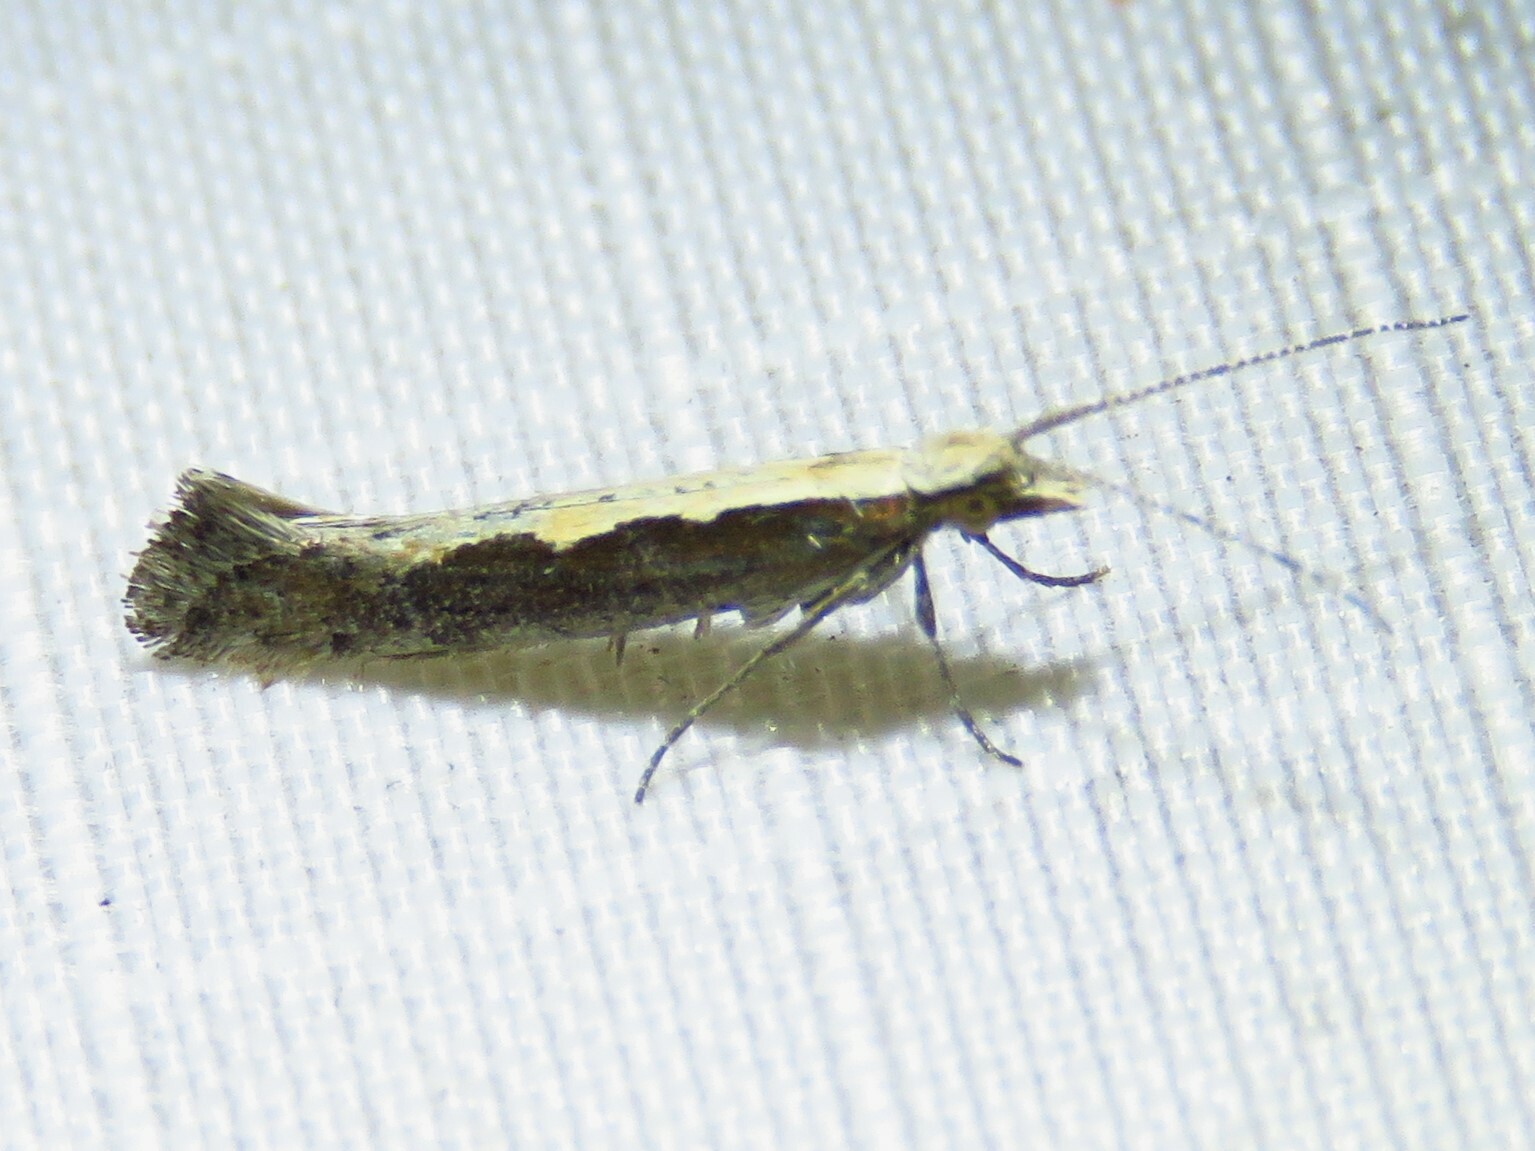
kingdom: Animalia
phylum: Arthropoda
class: Insecta
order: Lepidoptera
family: Plutellidae
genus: Plutella
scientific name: Plutella xylostella
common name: Diamond-back moth
